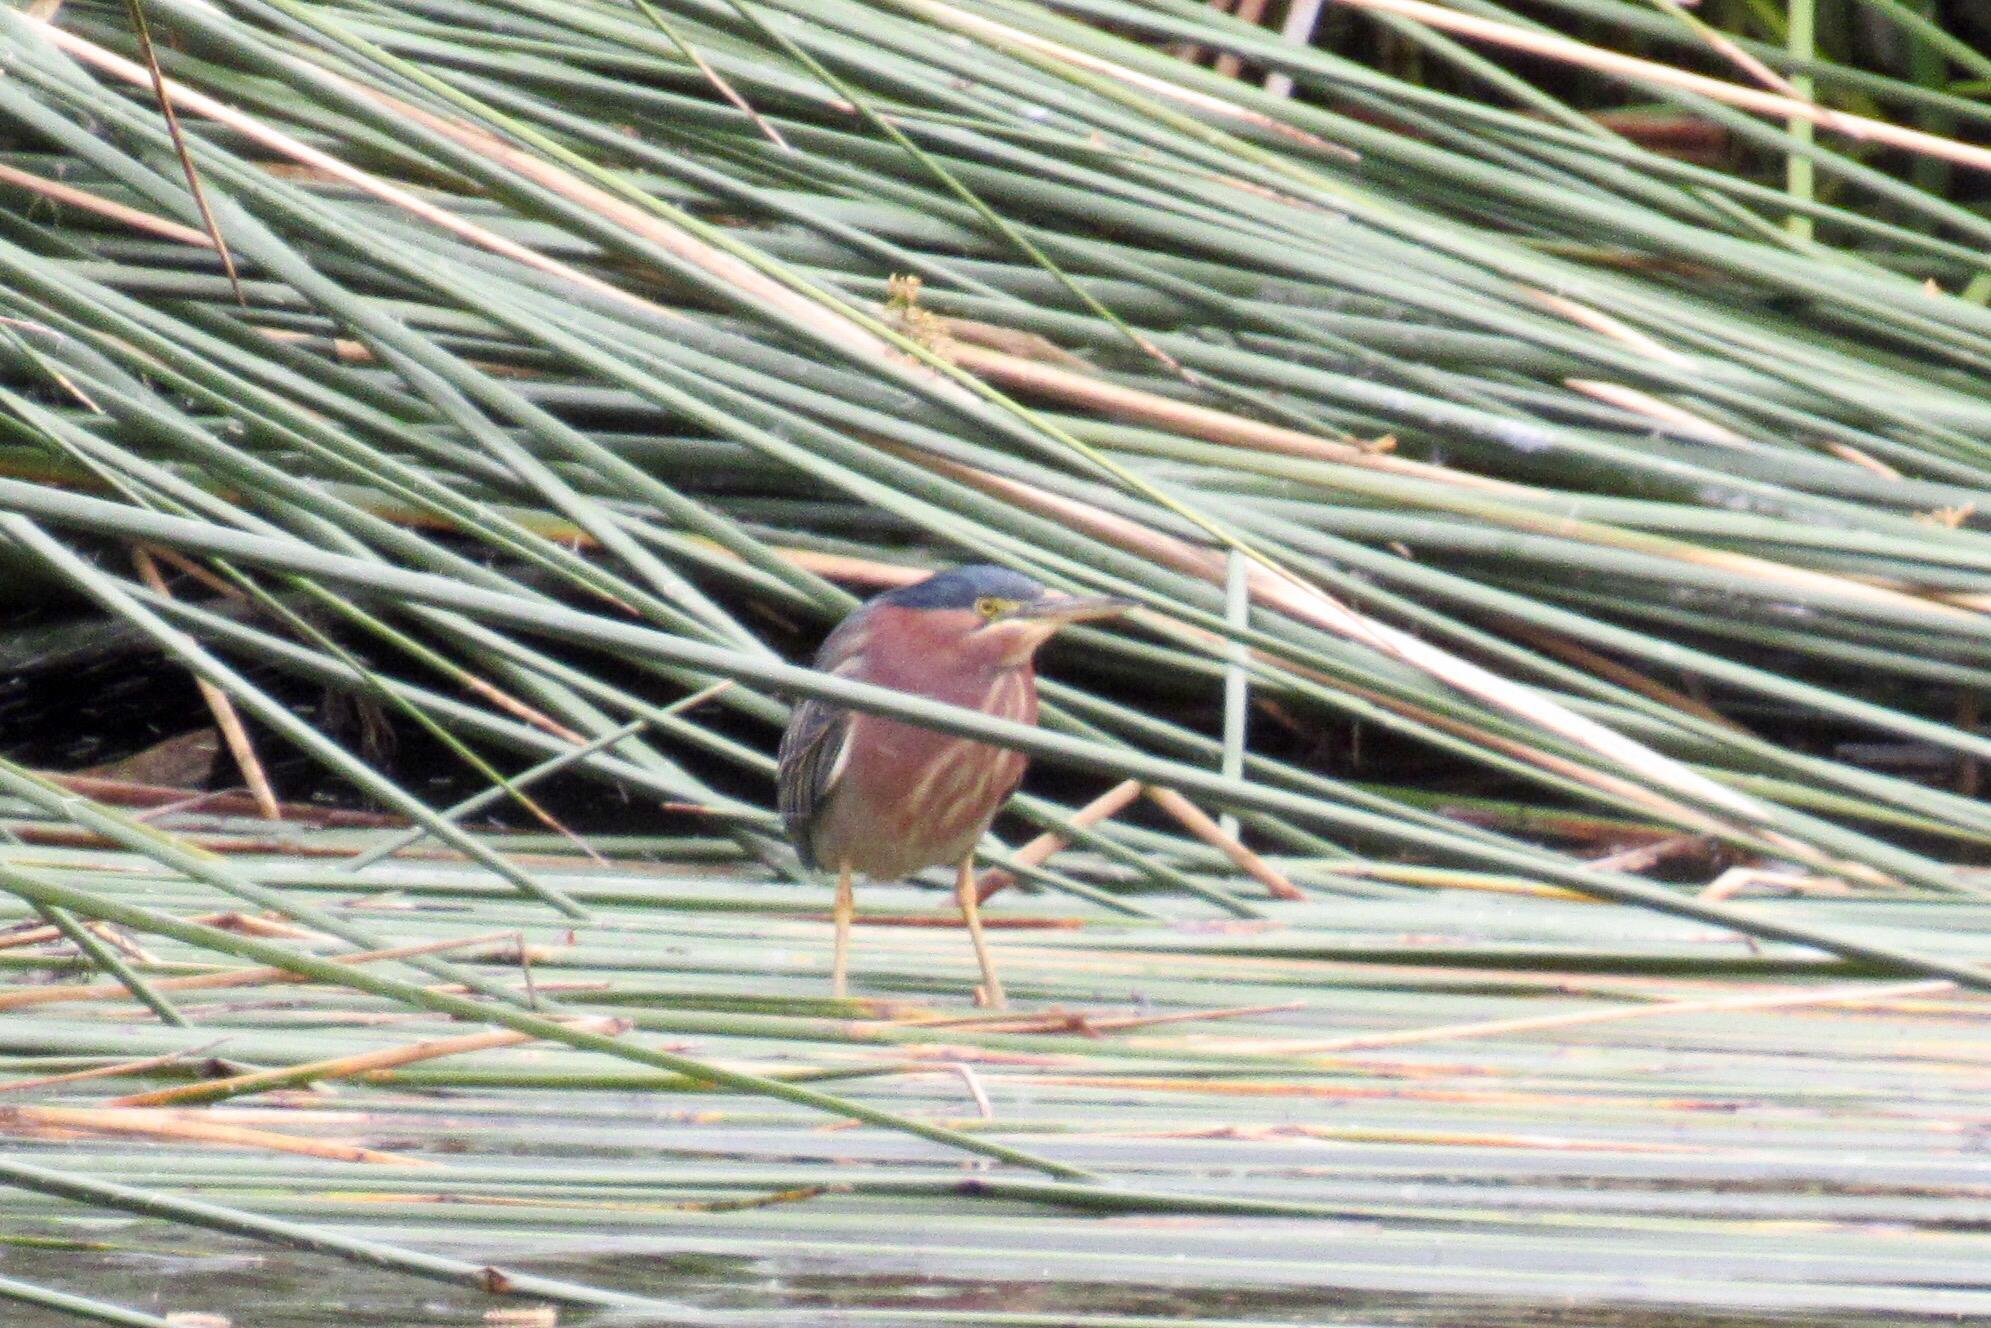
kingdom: Animalia
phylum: Chordata
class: Aves
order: Pelecaniformes
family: Ardeidae
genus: Butorides
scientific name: Butorides virescens
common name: Green heron
